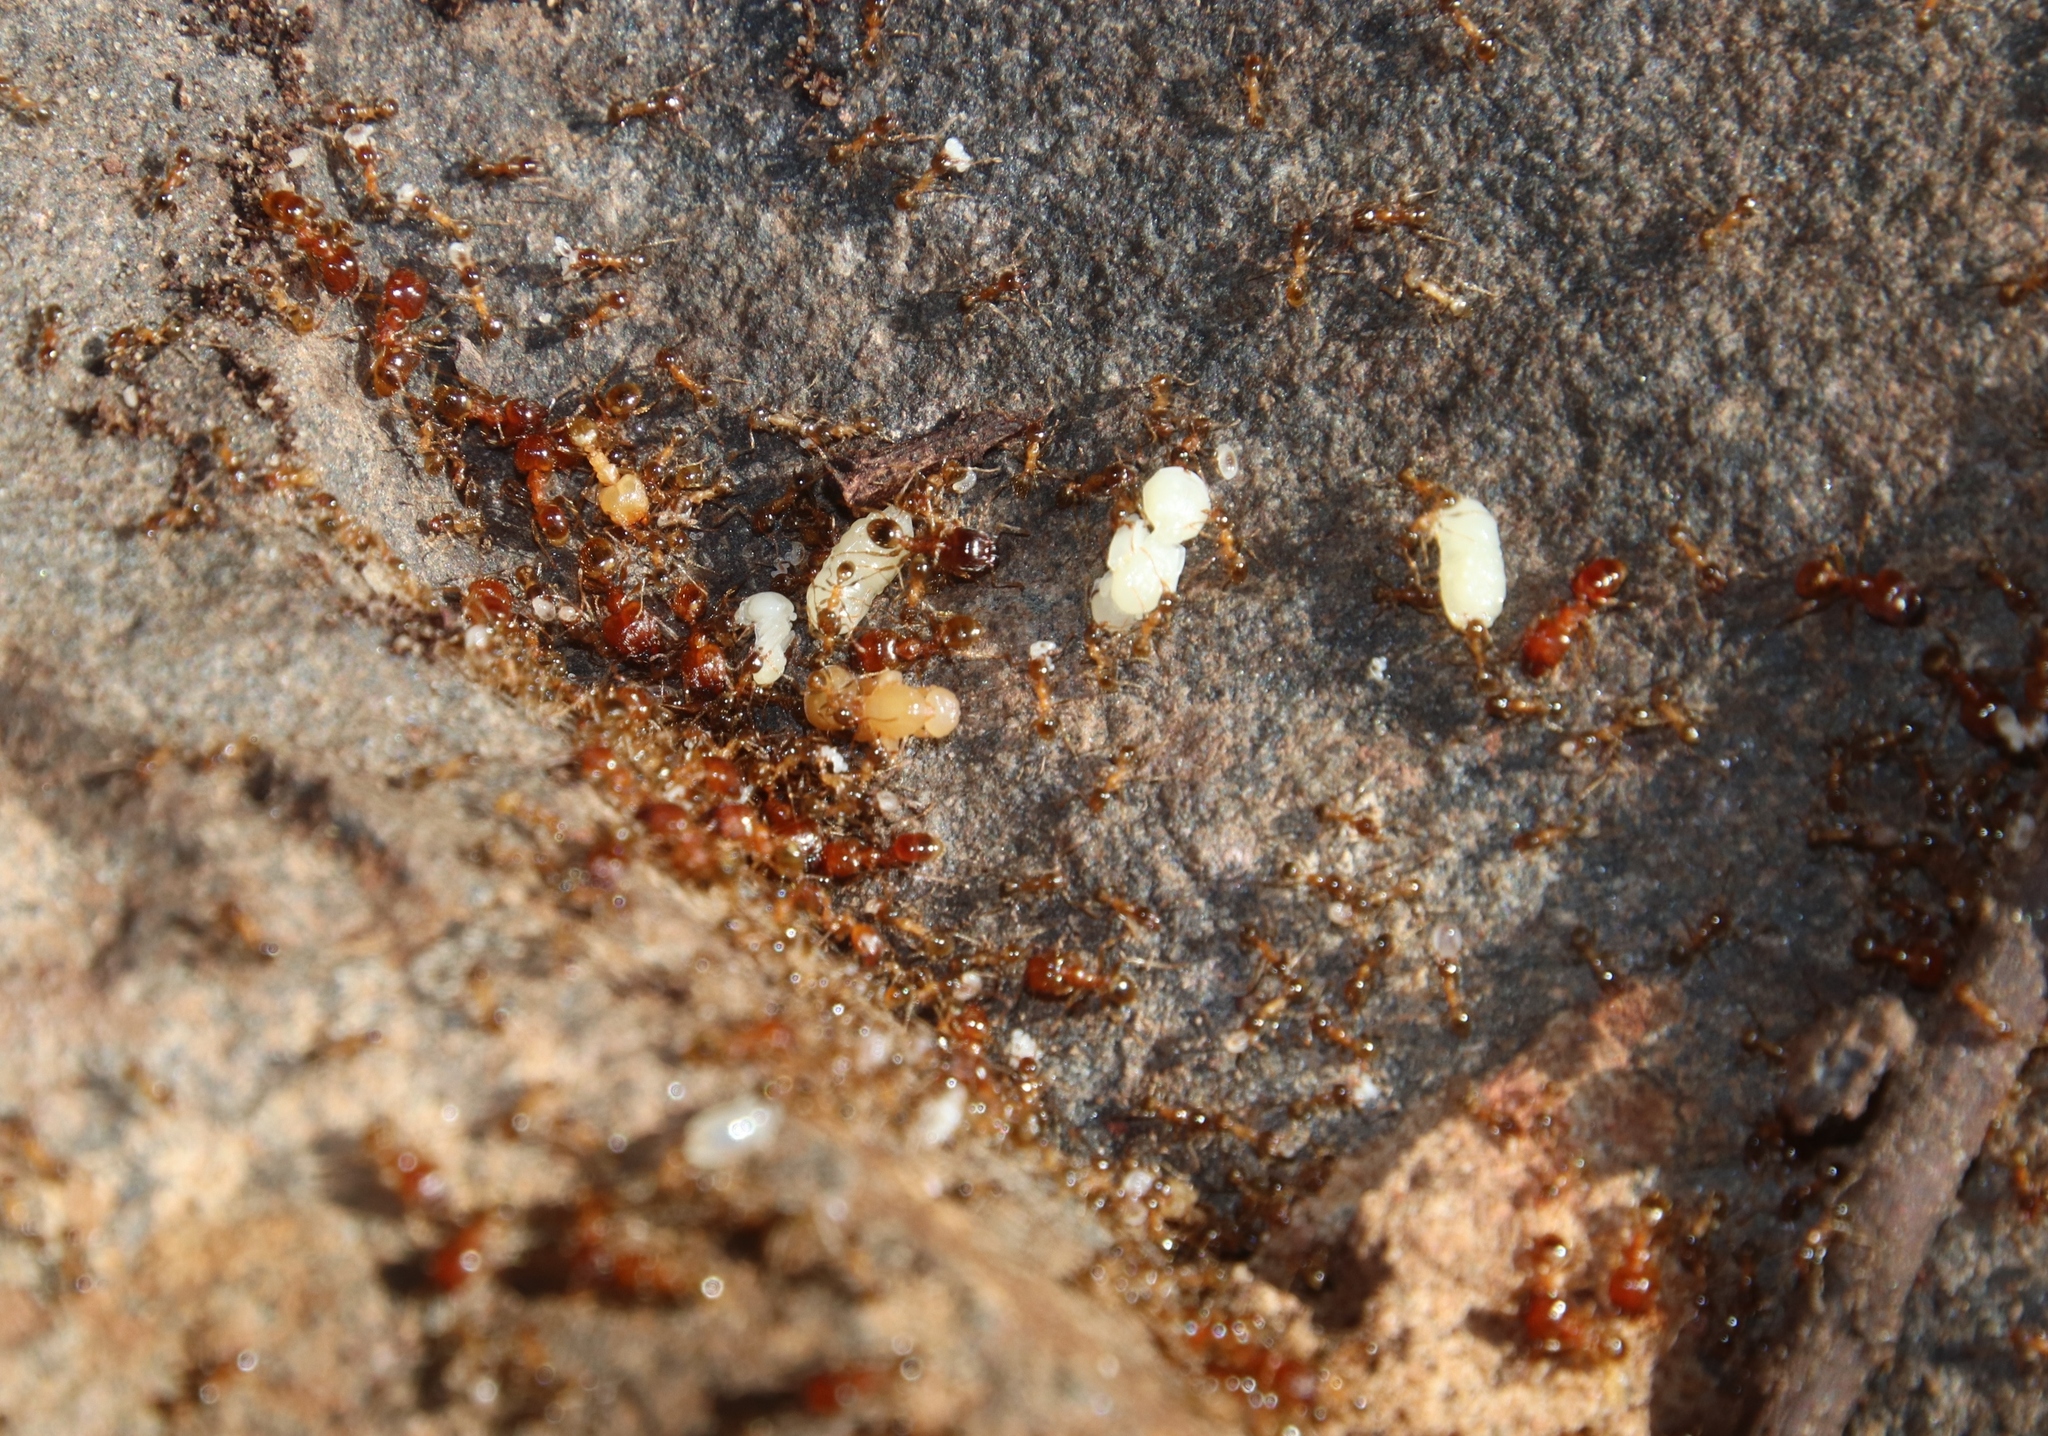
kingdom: Animalia
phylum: Arthropoda
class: Insecta
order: Hymenoptera
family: Formicidae
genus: Pheidole
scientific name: Pheidole megacephala
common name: Bigheaded ant
